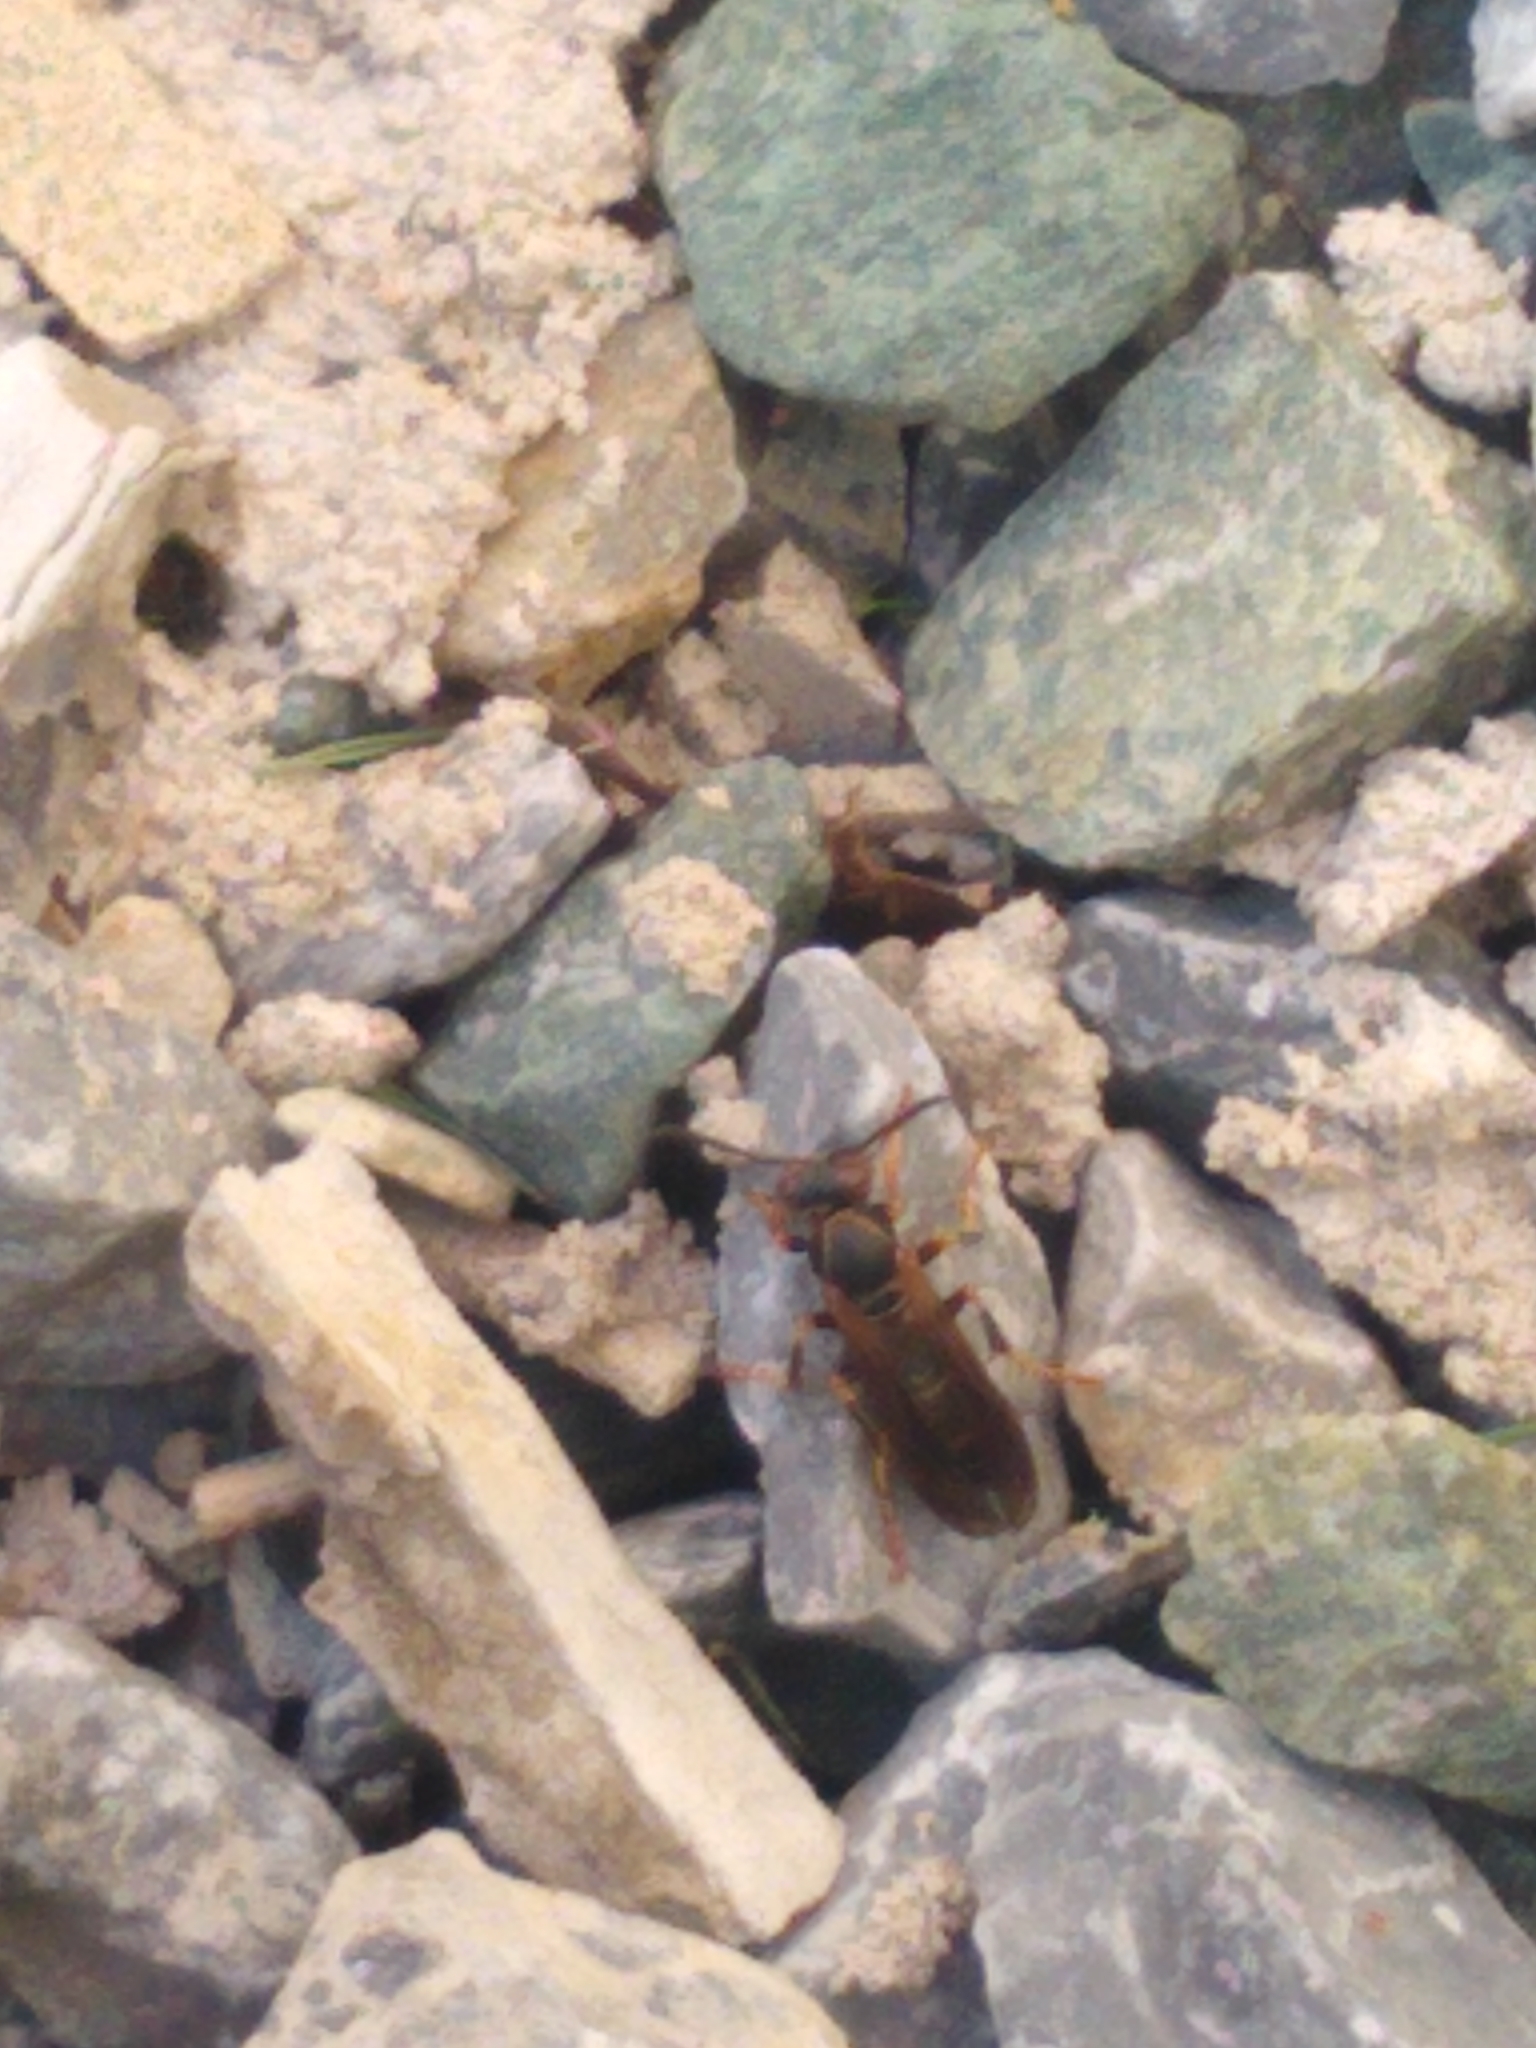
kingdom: Animalia
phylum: Arthropoda
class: Insecta
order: Hymenoptera
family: Eumenidae
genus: Polistes
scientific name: Polistes fuscatus
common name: Dark paper wasp
